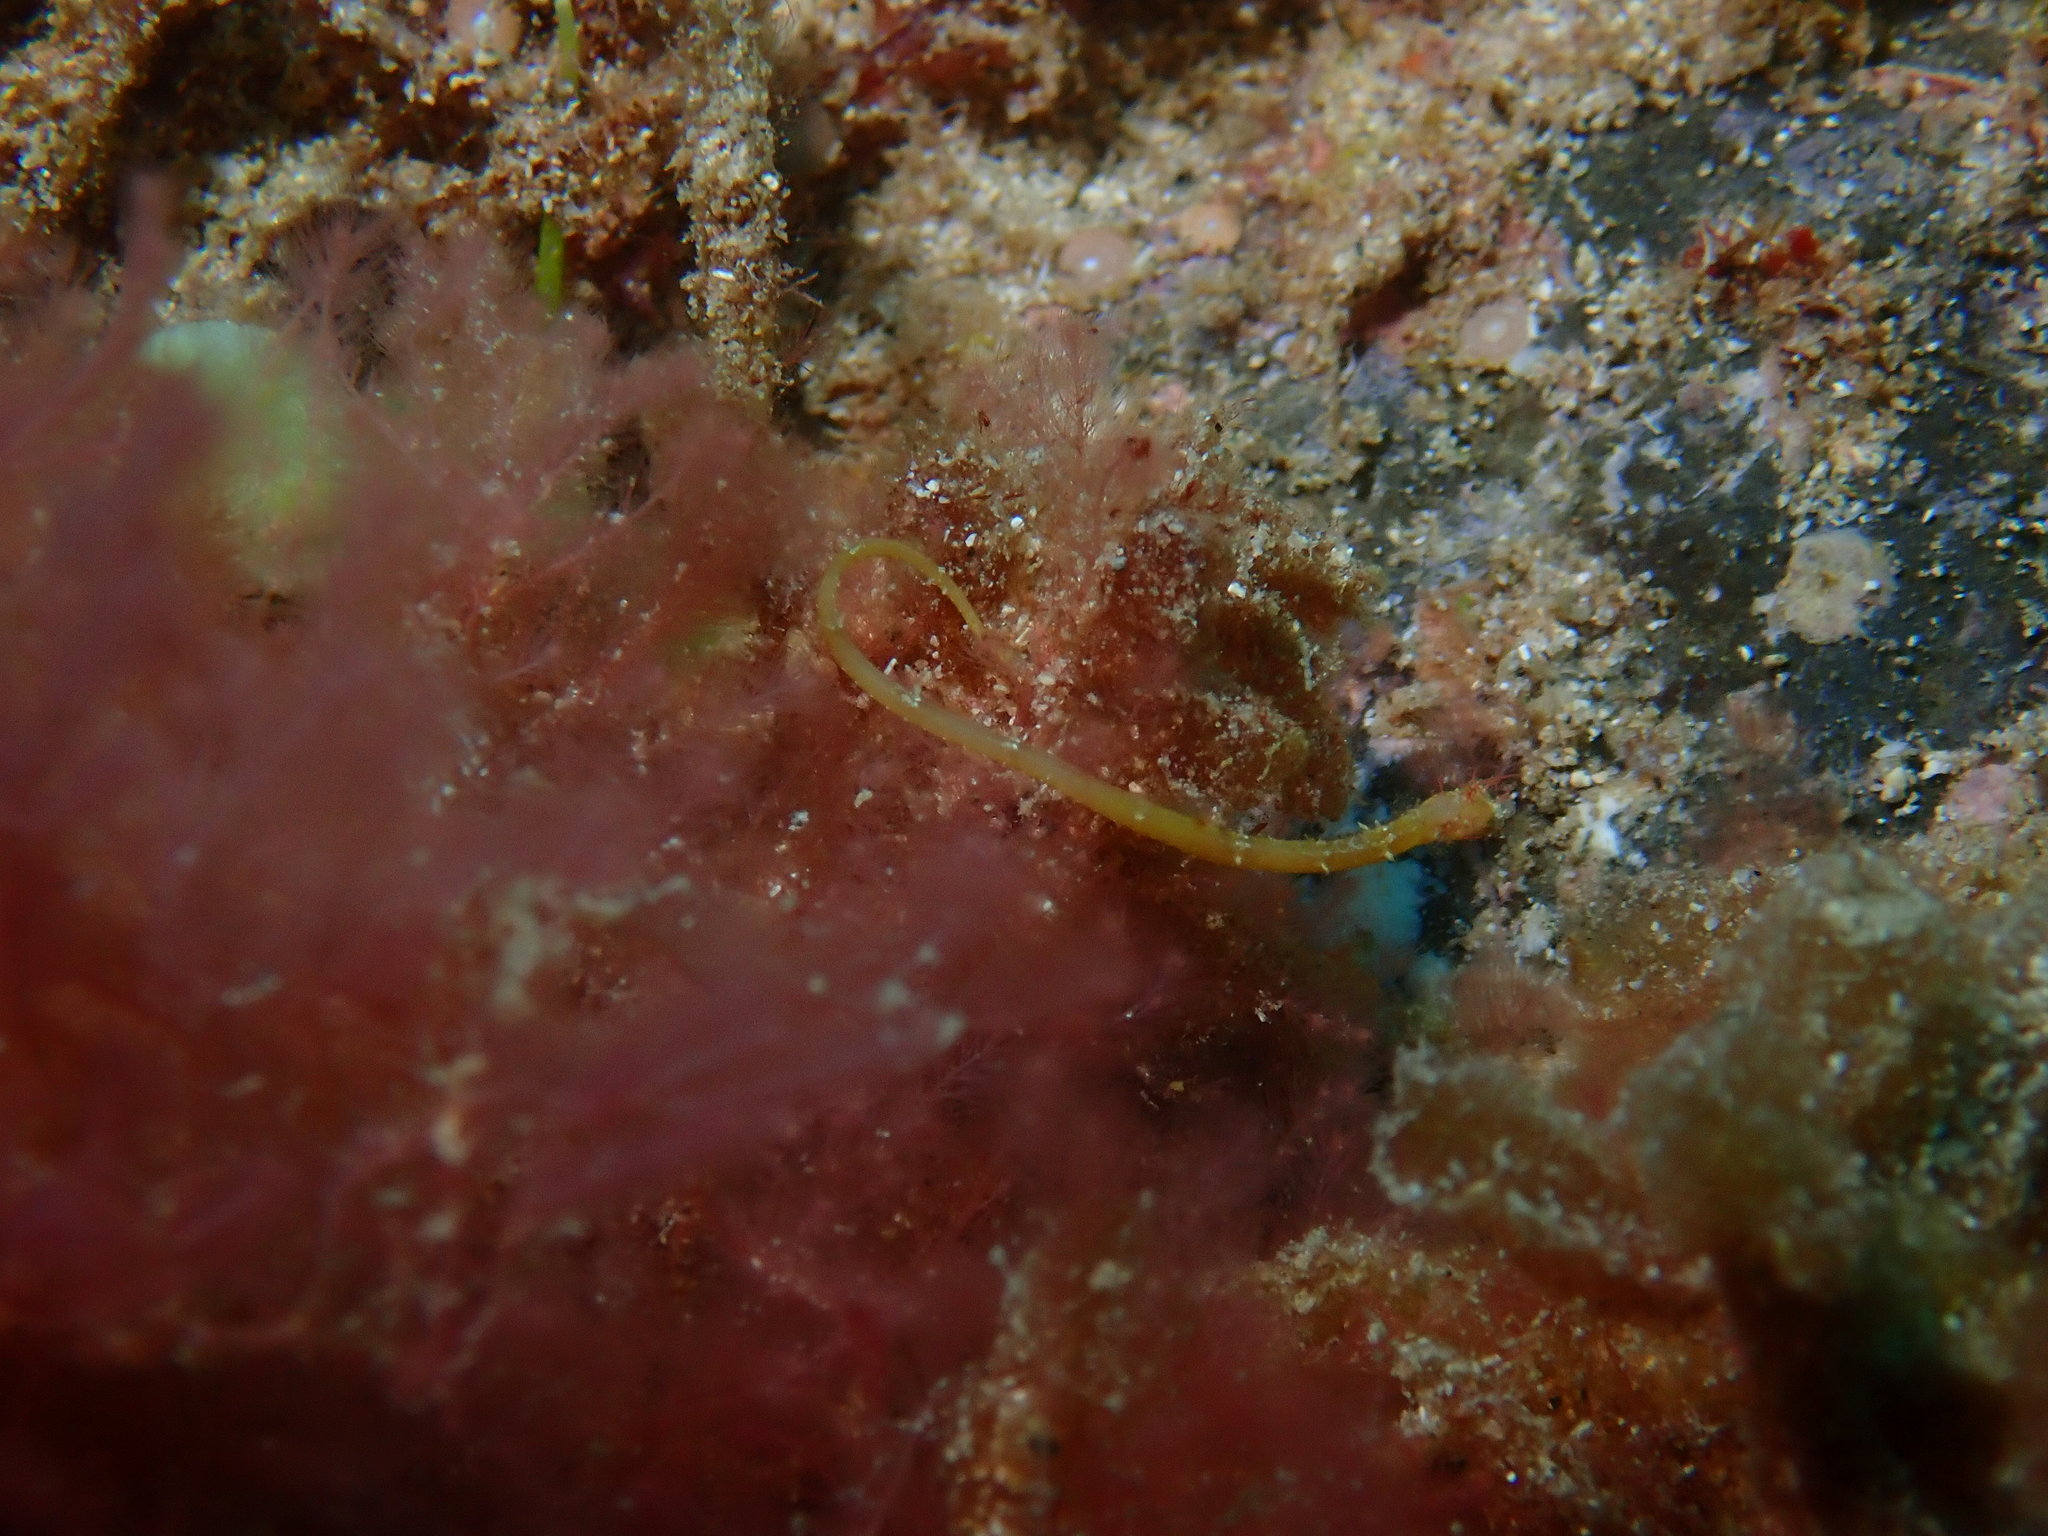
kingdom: Animalia
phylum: Chordata
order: Syngnathiformes
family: Syngnathidae
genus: Halicampus
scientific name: Halicampus boothae
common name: Booth's pipefish
